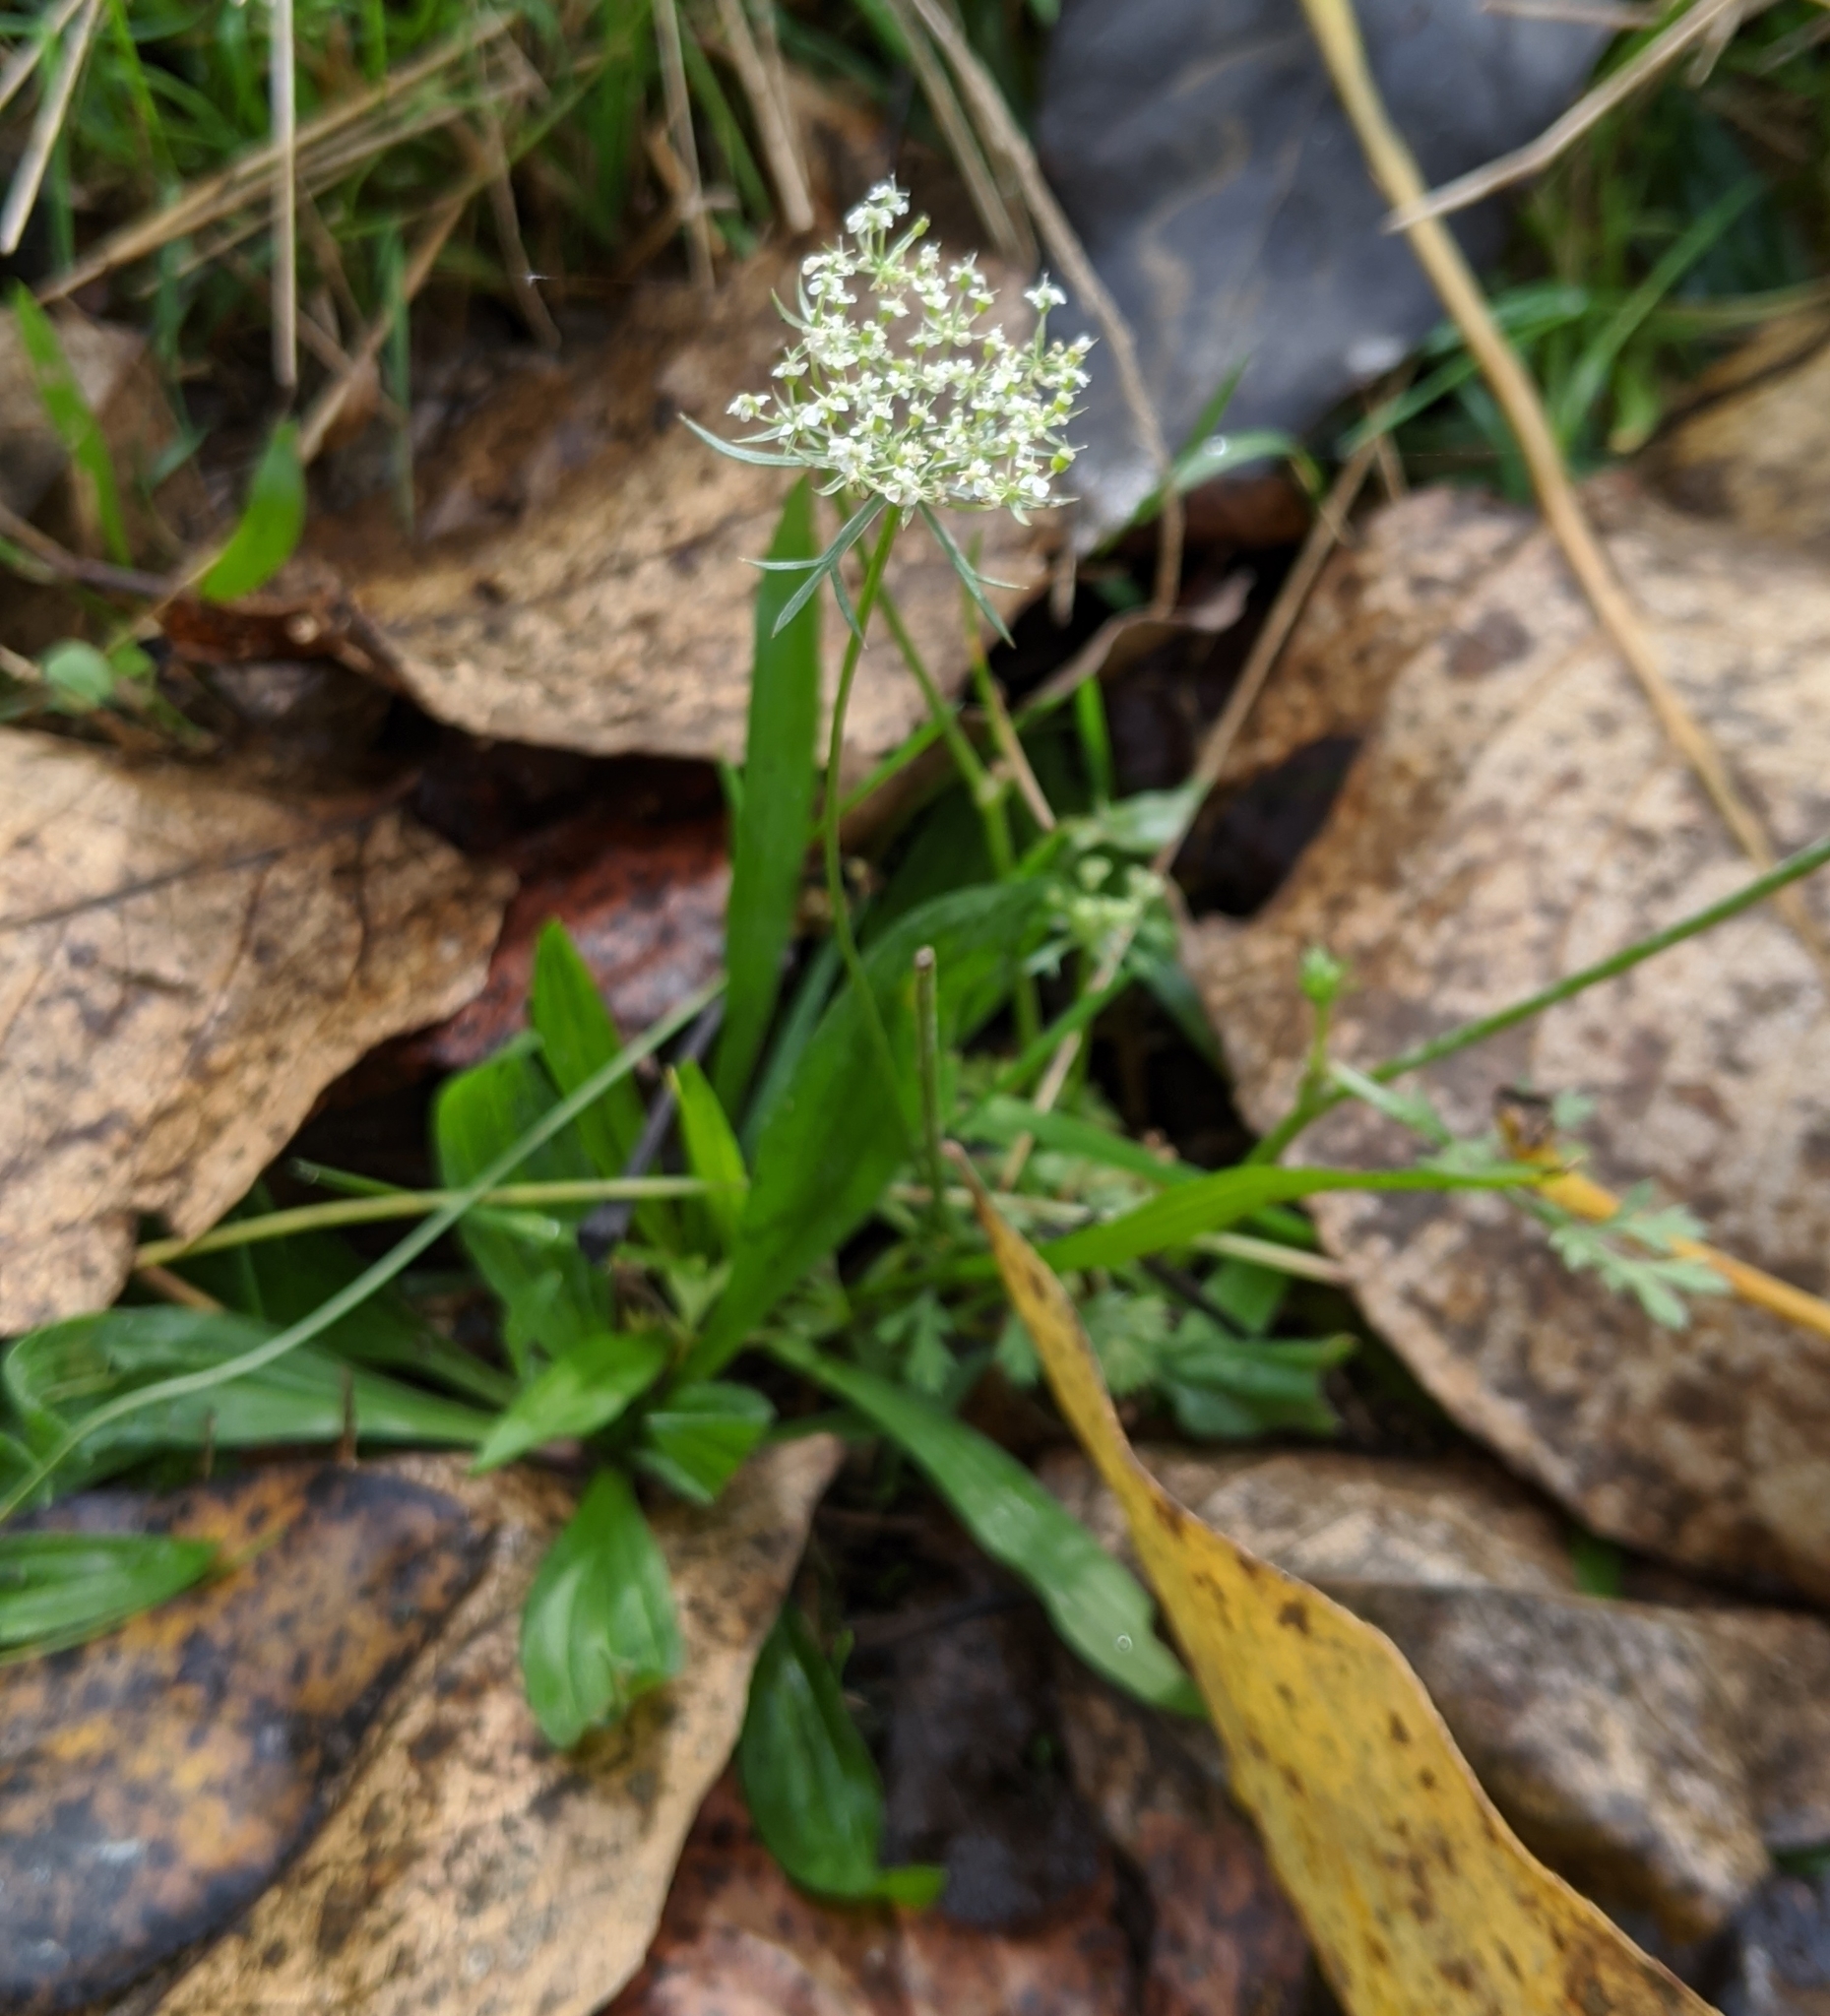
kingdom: Plantae
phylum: Tracheophyta
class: Magnoliopsida
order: Apiales
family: Apiaceae
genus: Daucus
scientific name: Daucus carota
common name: Wild carrot
